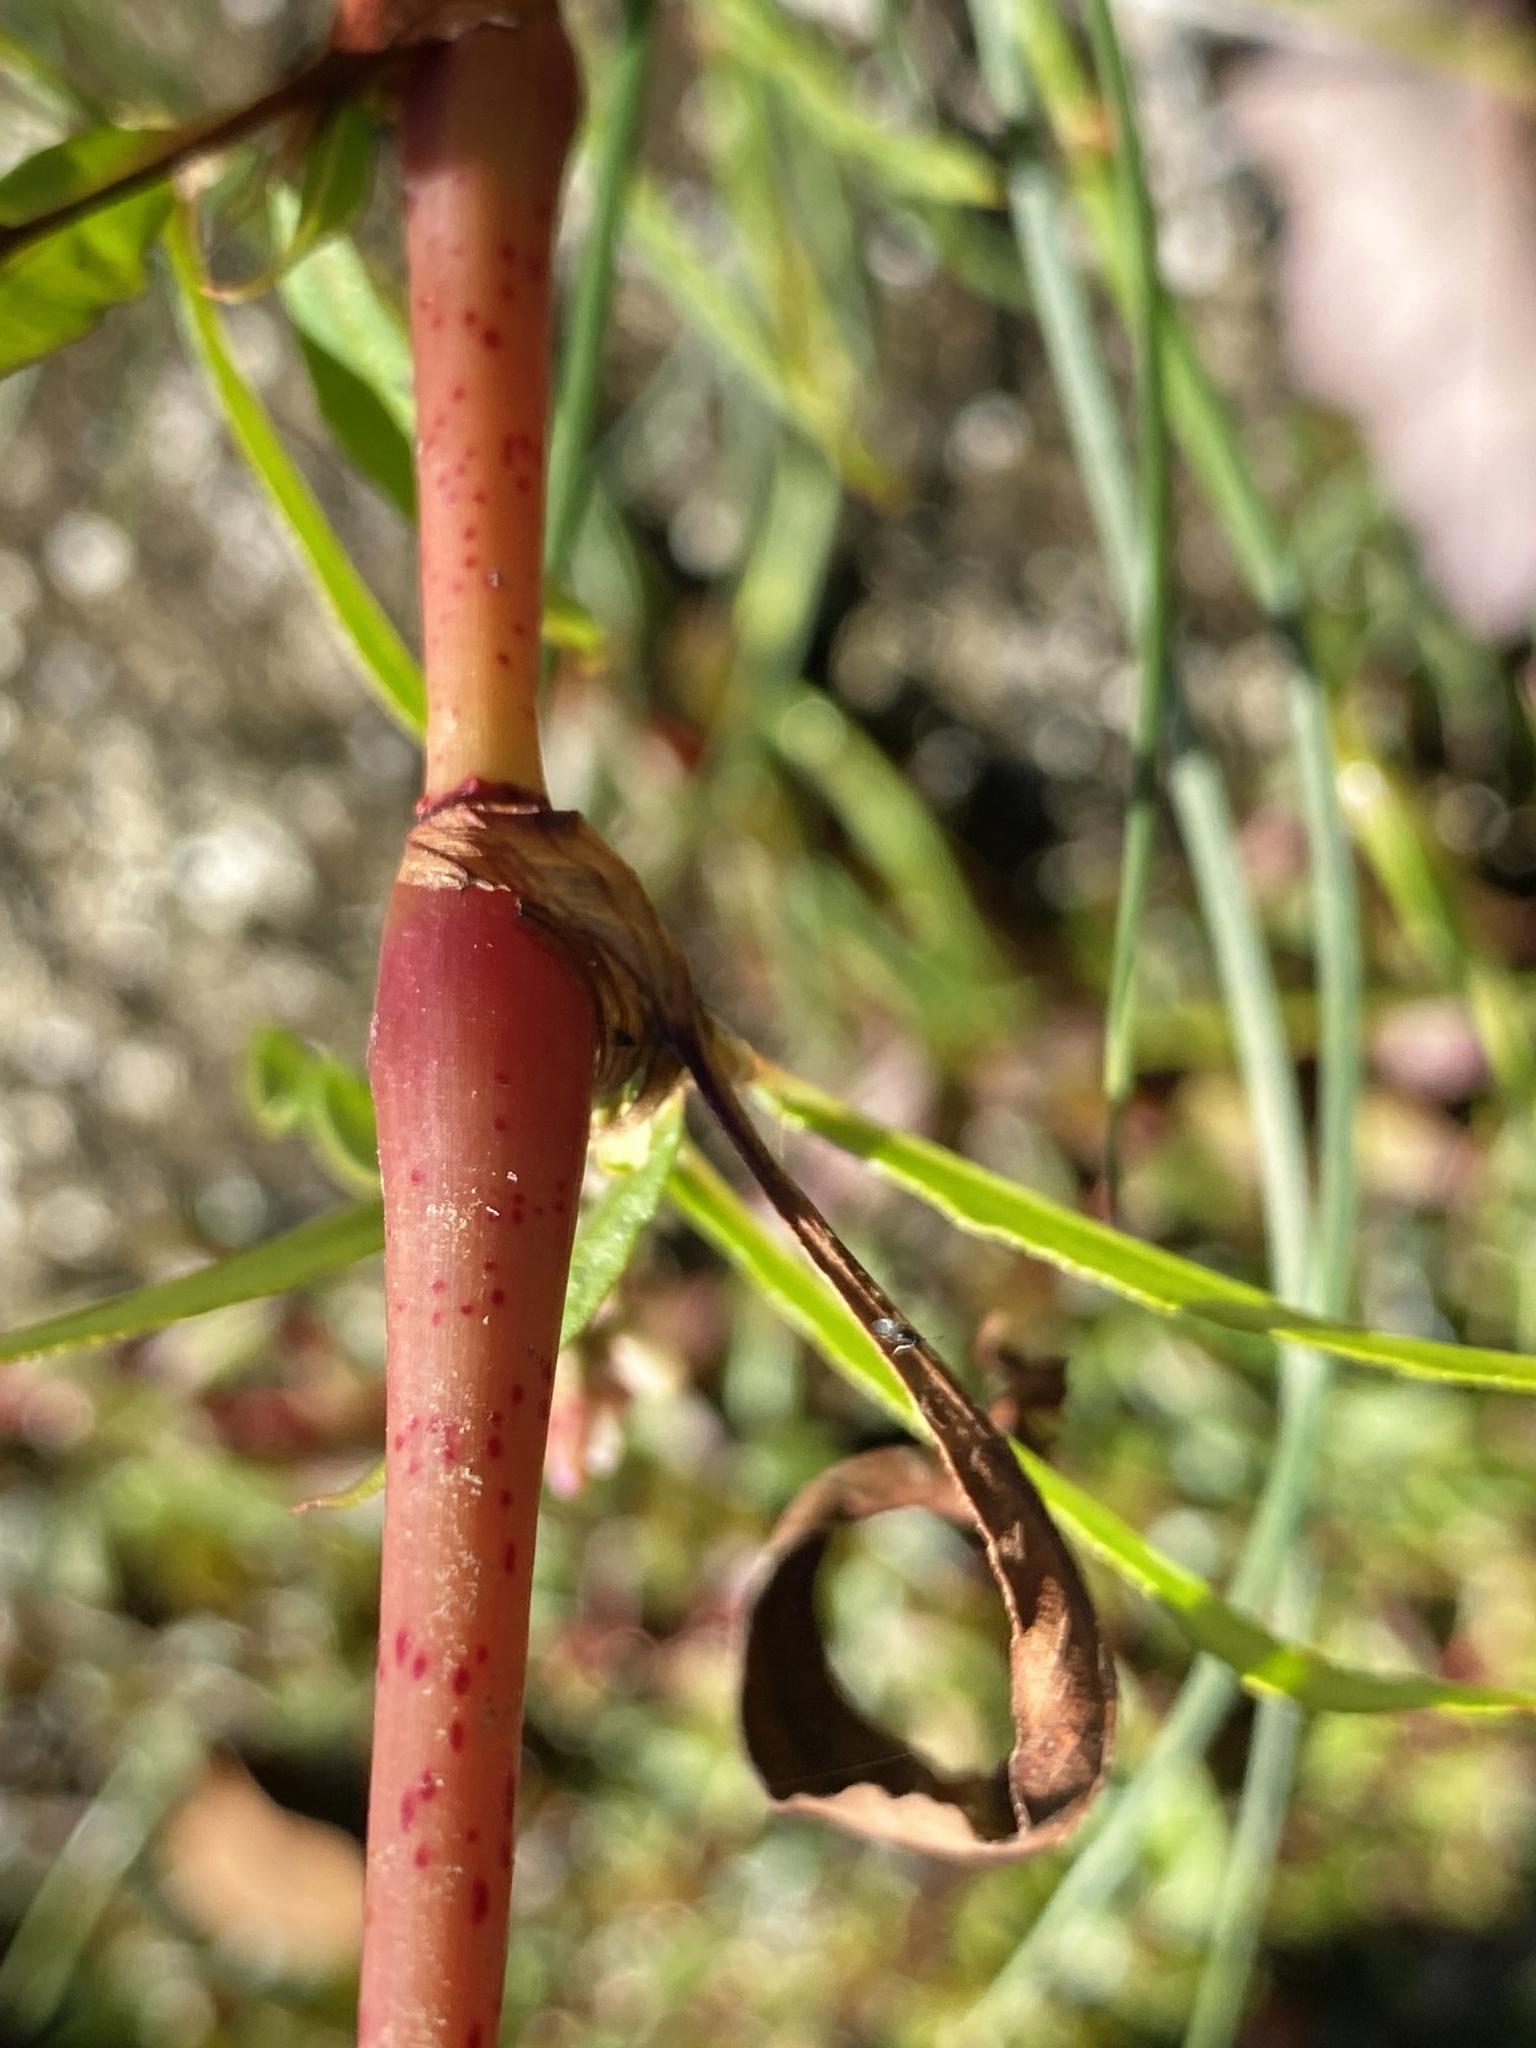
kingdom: Plantae
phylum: Tracheophyta
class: Magnoliopsida
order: Caryophyllales
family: Polygonaceae
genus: Persicaria
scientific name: Persicaria maculosa
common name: Redshank
